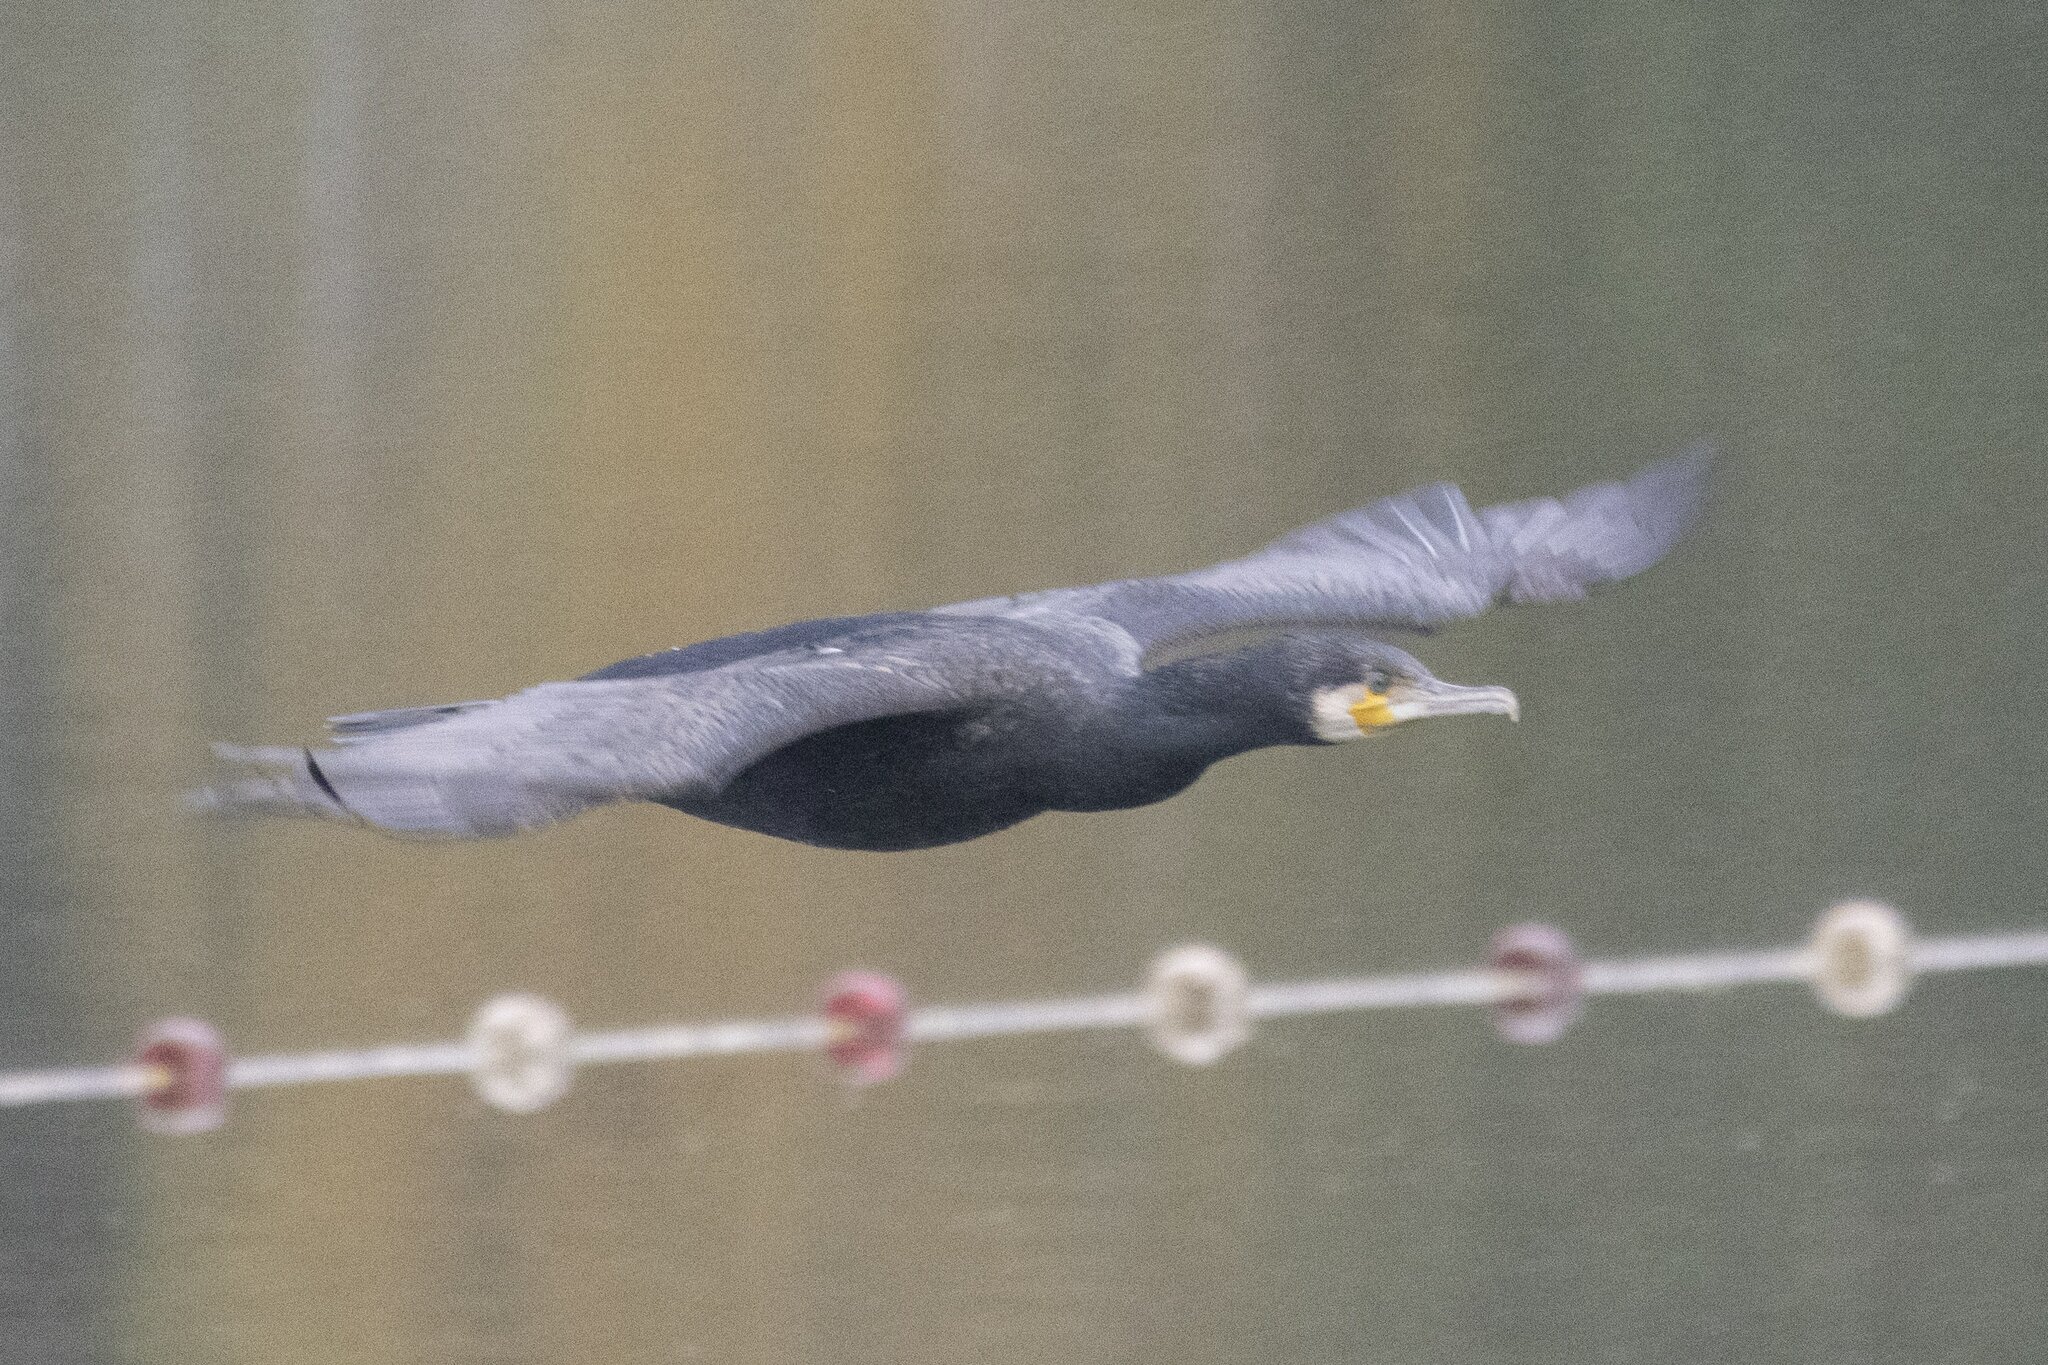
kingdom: Animalia
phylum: Chordata
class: Aves
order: Suliformes
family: Phalacrocoracidae
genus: Phalacrocorax
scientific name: Phalacrocorax carbo
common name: Great cormorant
